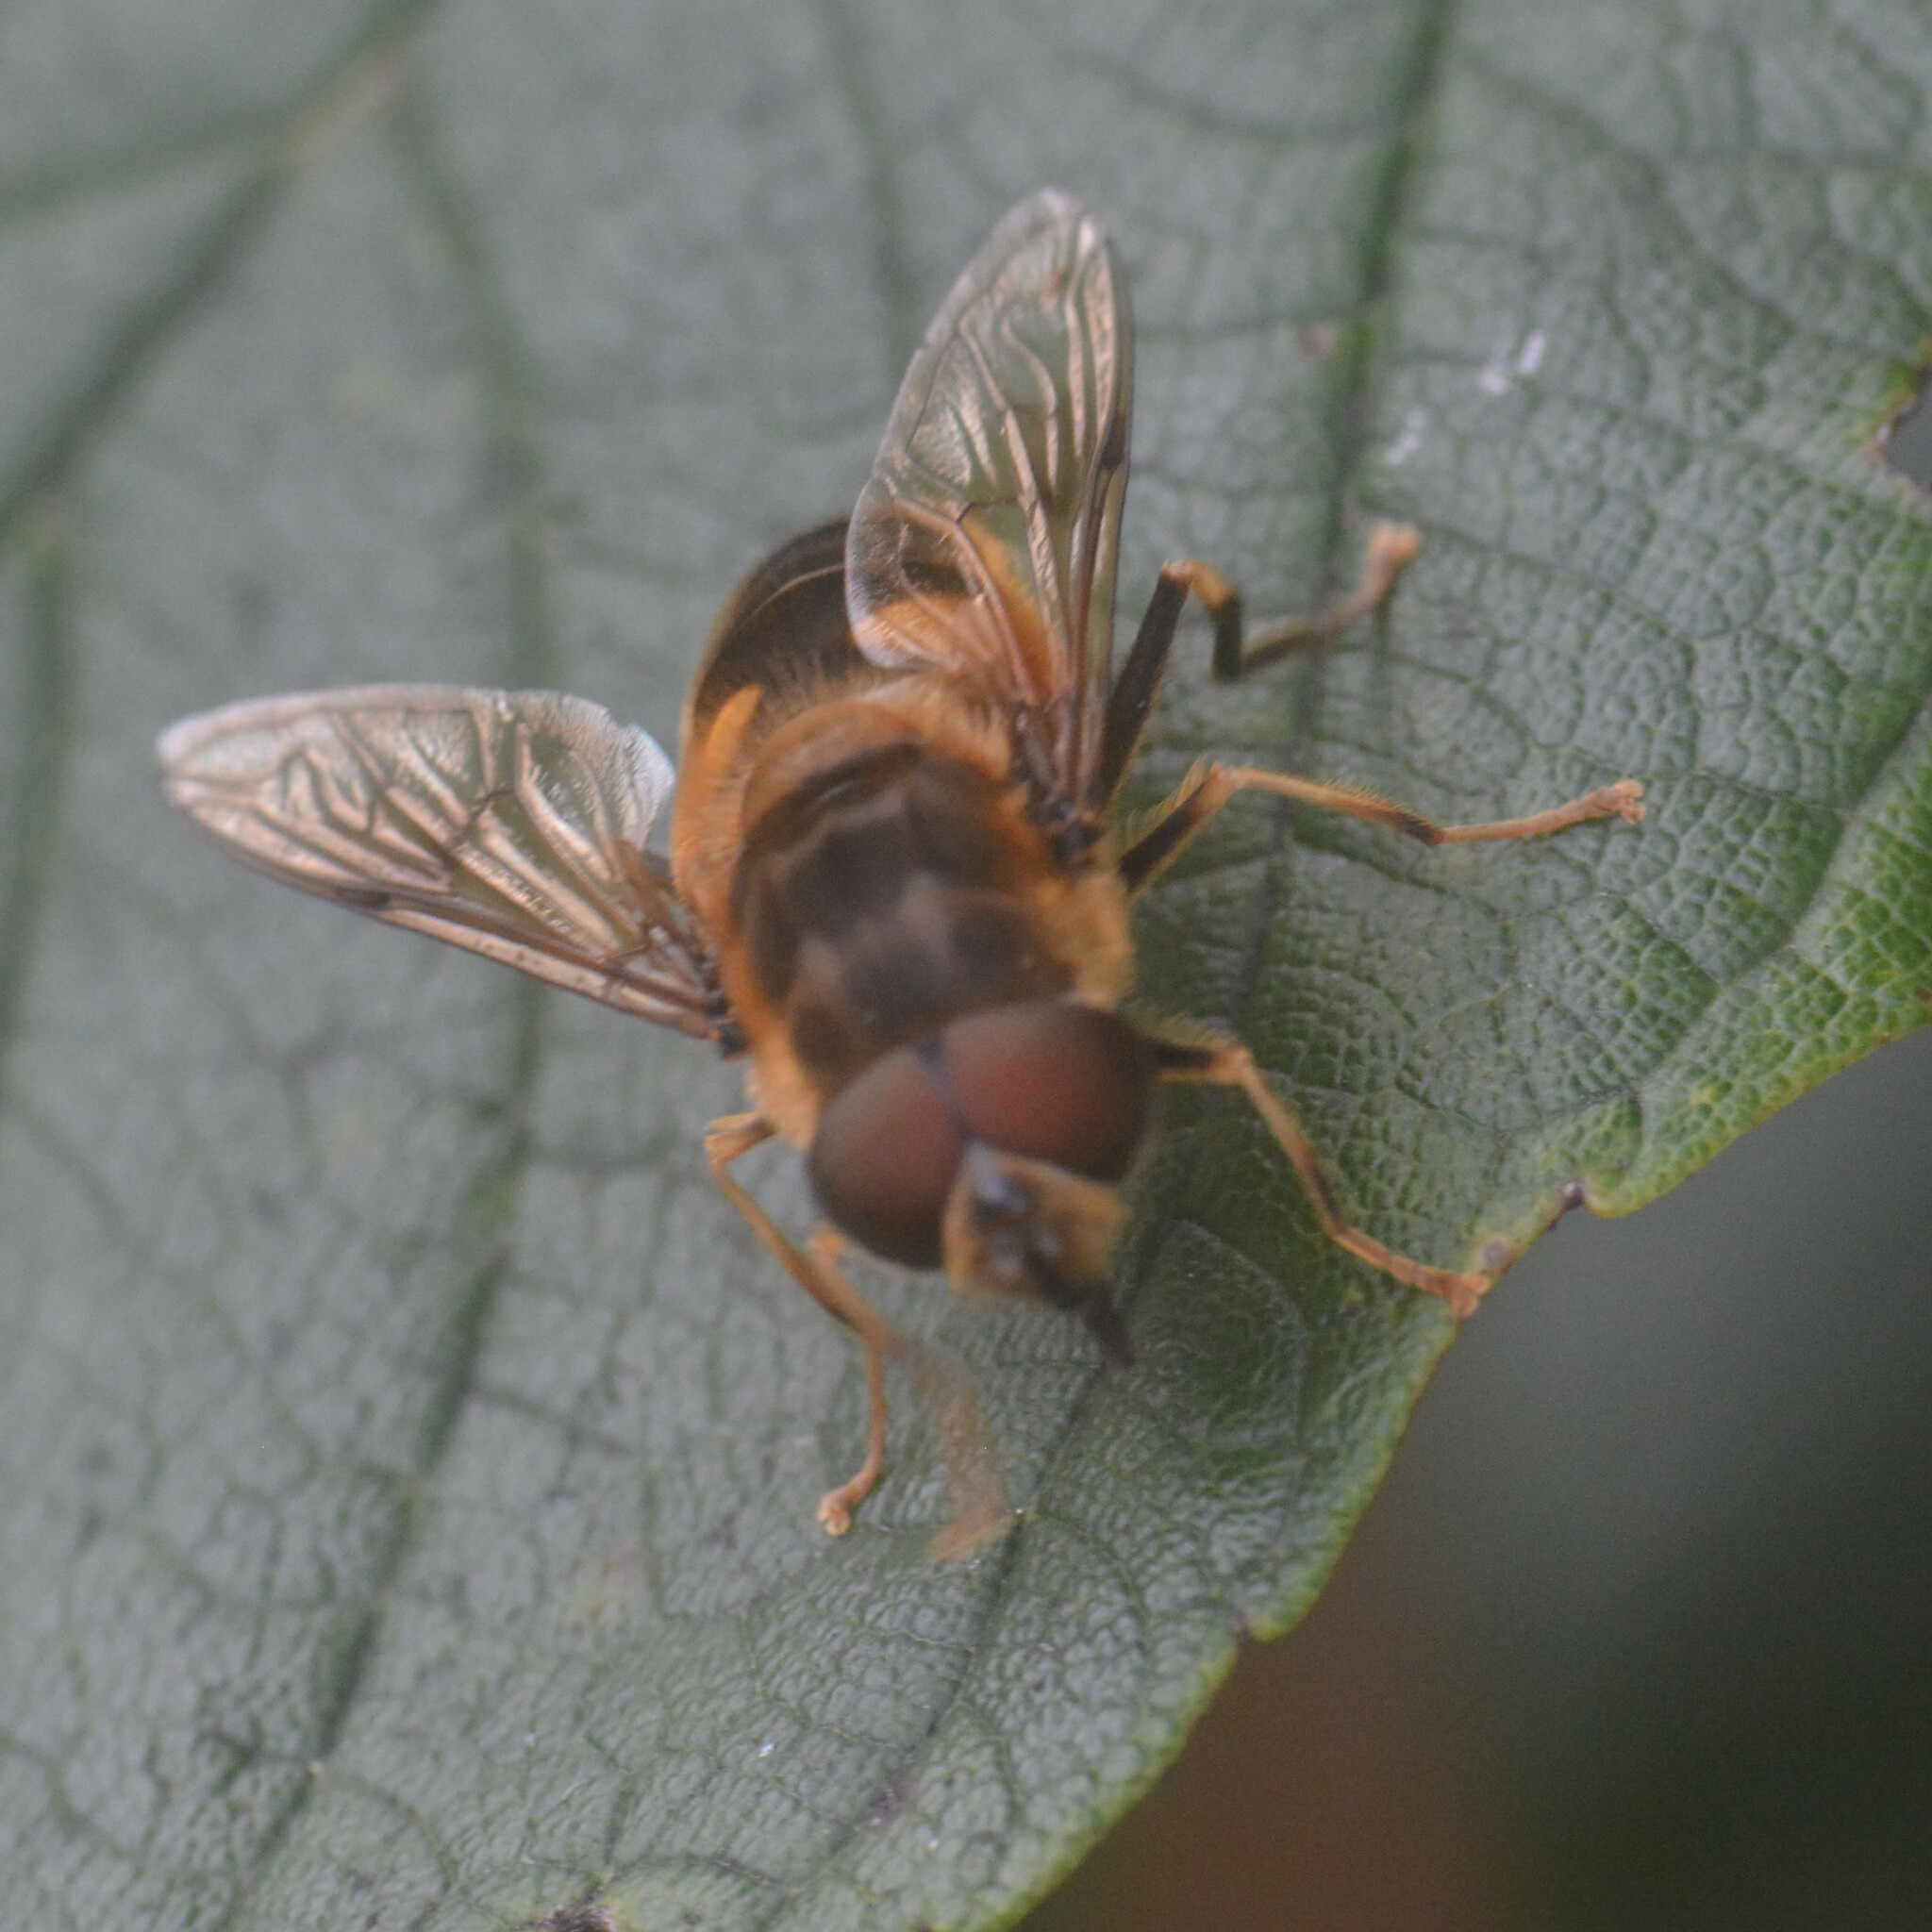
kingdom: Animalia
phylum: Arthropoda
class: Insecta
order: Diptera
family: Syrphidae
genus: Eristalis
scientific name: Eristalis pertinax
